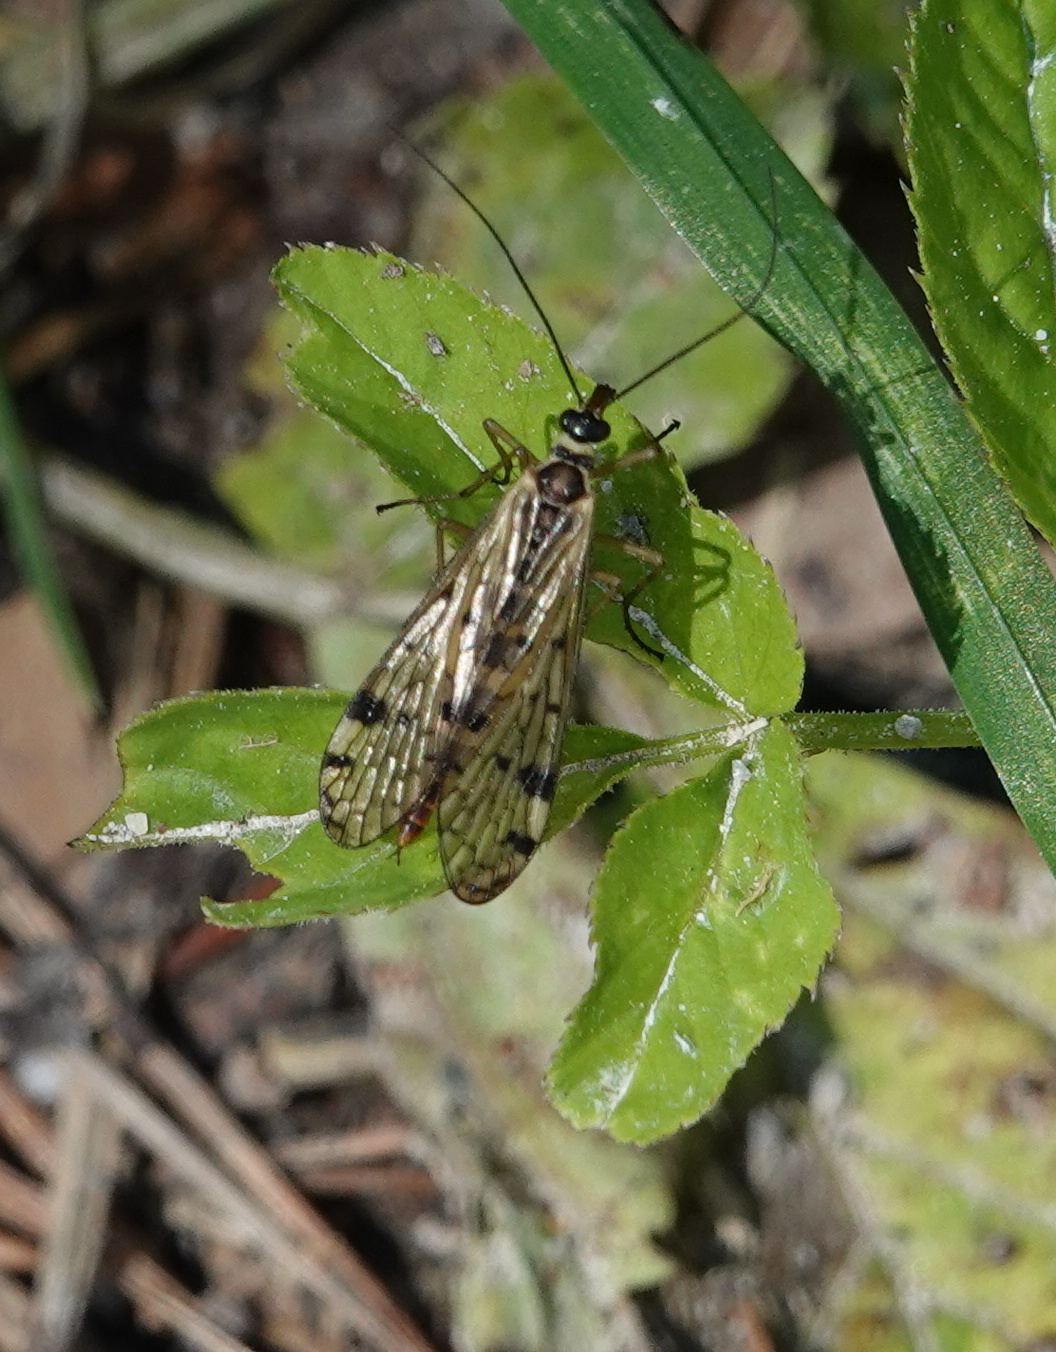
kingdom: Animalia
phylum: Arthropoda
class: Insecta
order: Mecoptera
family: Panorpidae
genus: Panorpa
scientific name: Panorpa alpina
